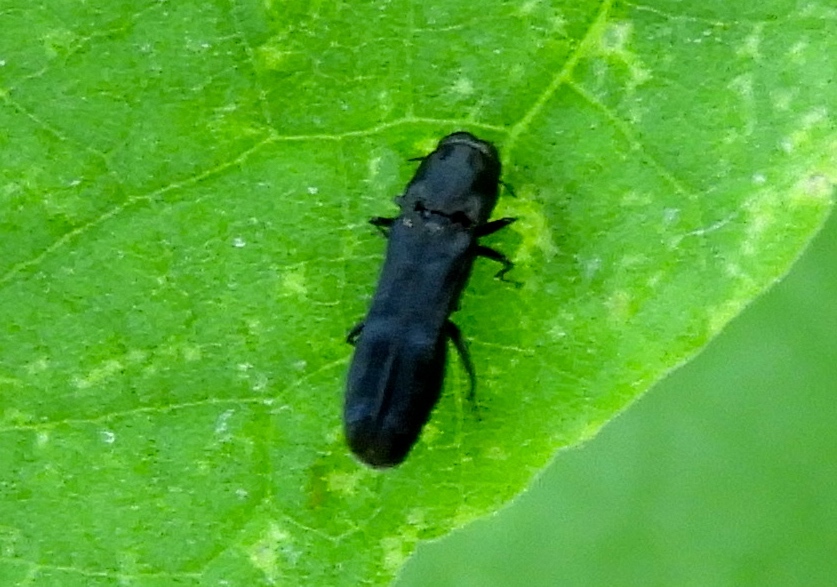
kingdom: Animalia
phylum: Arthropoda
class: Insecta
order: Coleoptera
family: Buprestidae
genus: Paragrilus
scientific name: Paragrilus
